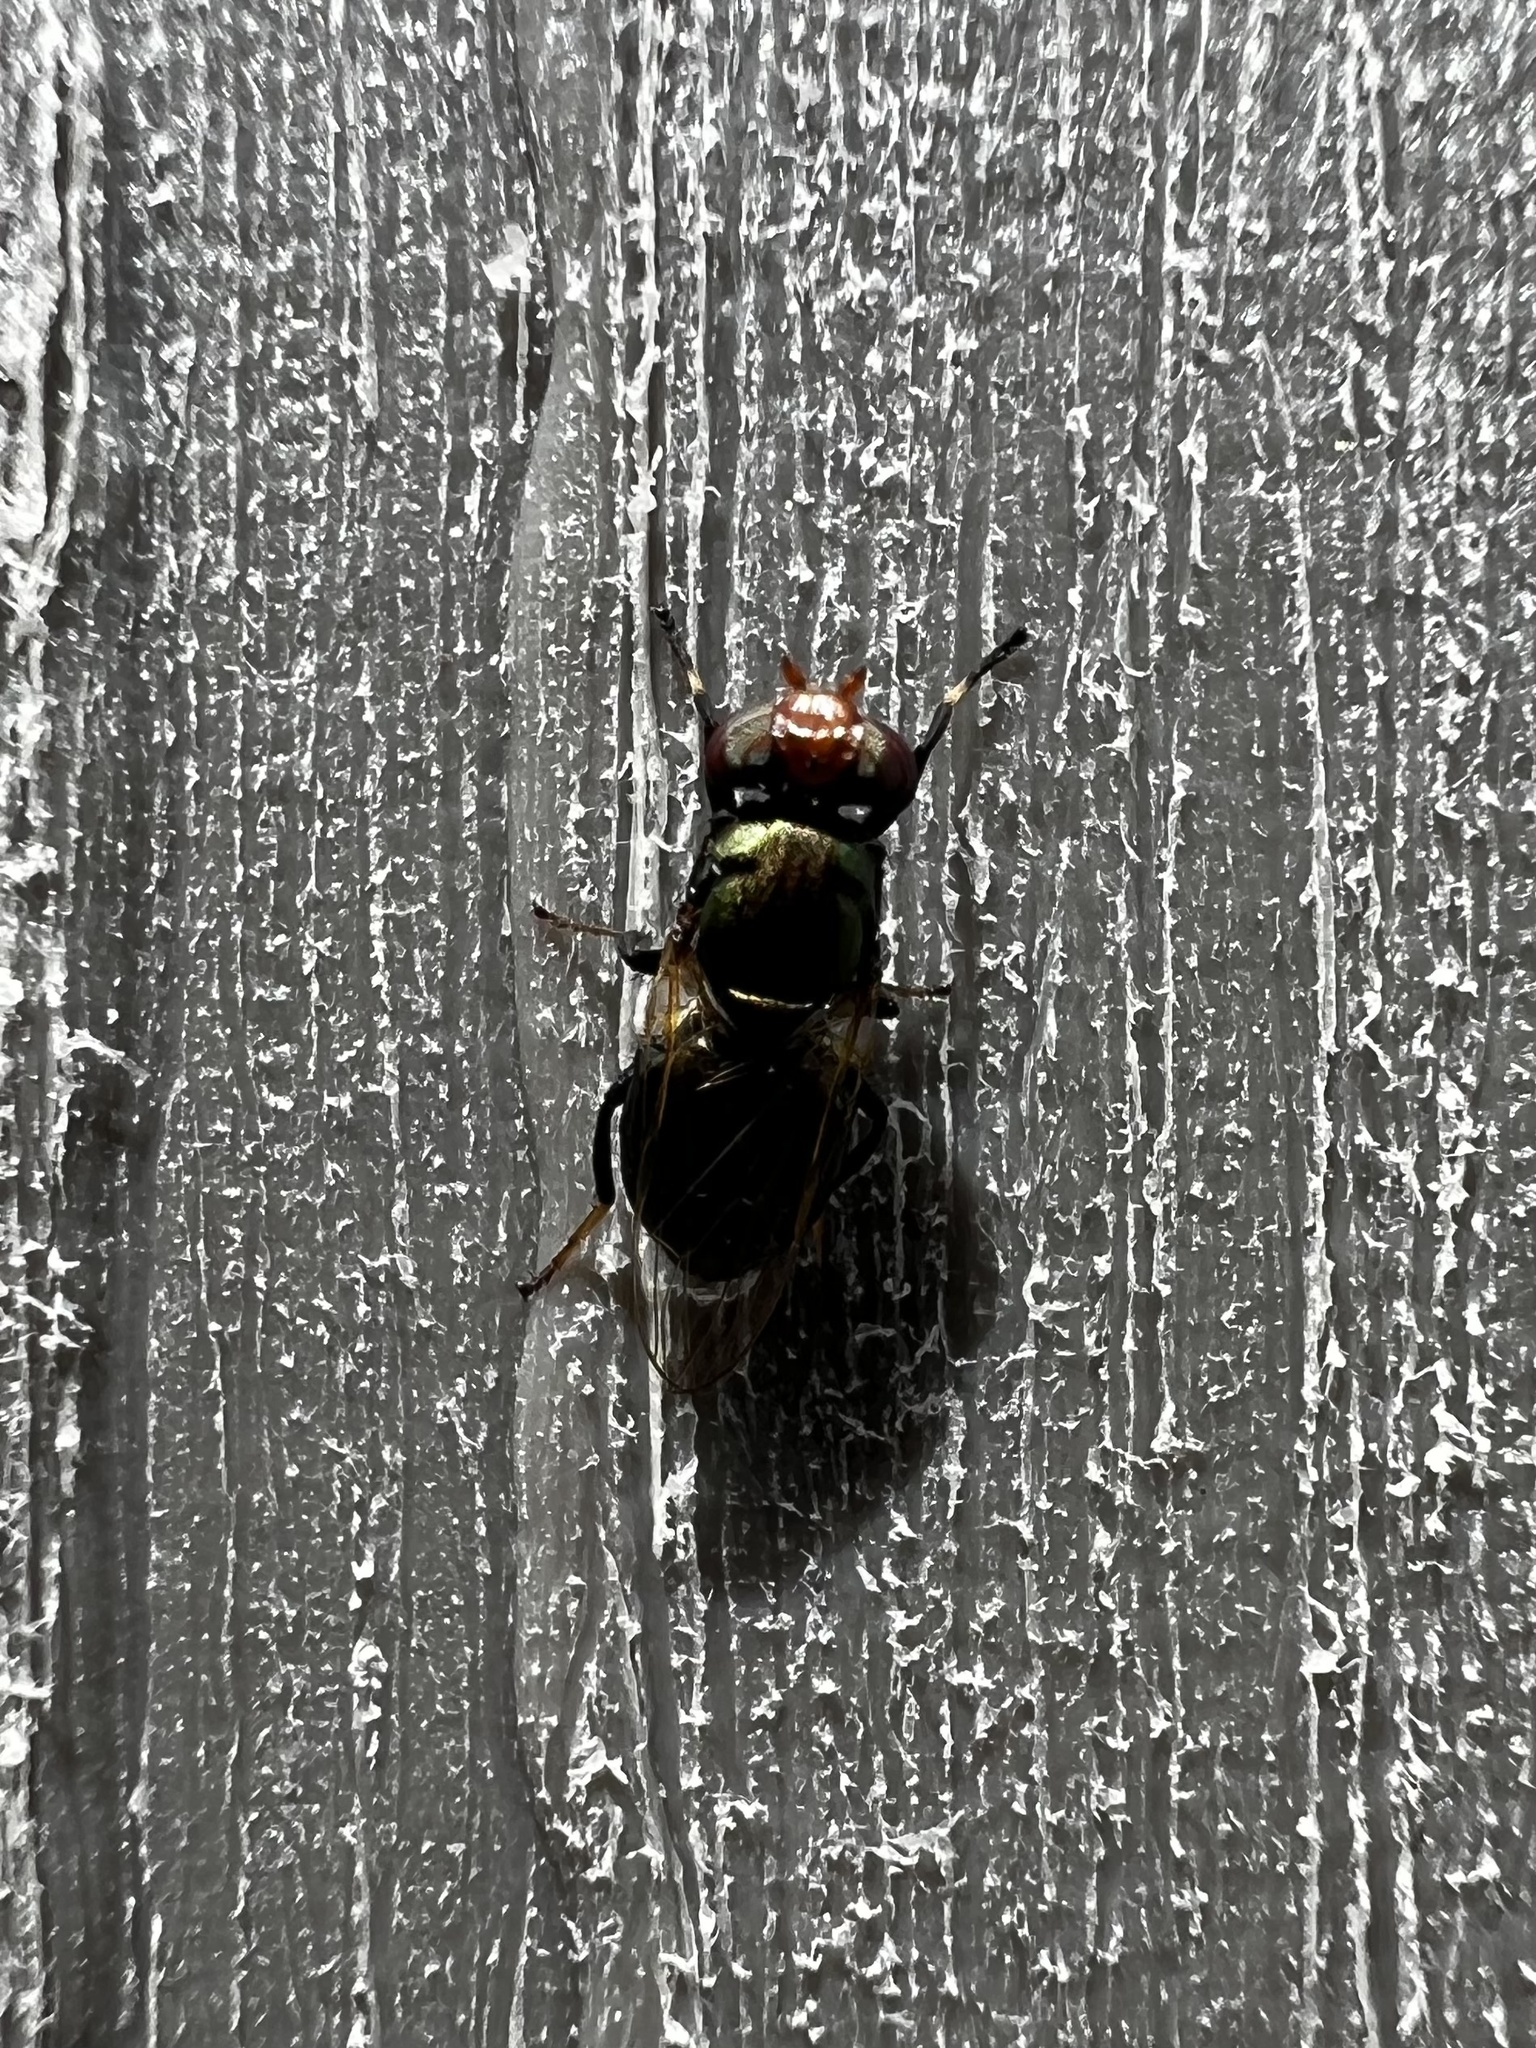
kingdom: Animalia
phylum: Arthropoda
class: Insecta
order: Diptera
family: Ulidiidae
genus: Physiphora
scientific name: Physiphora alceae
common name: Picture-winged fly
